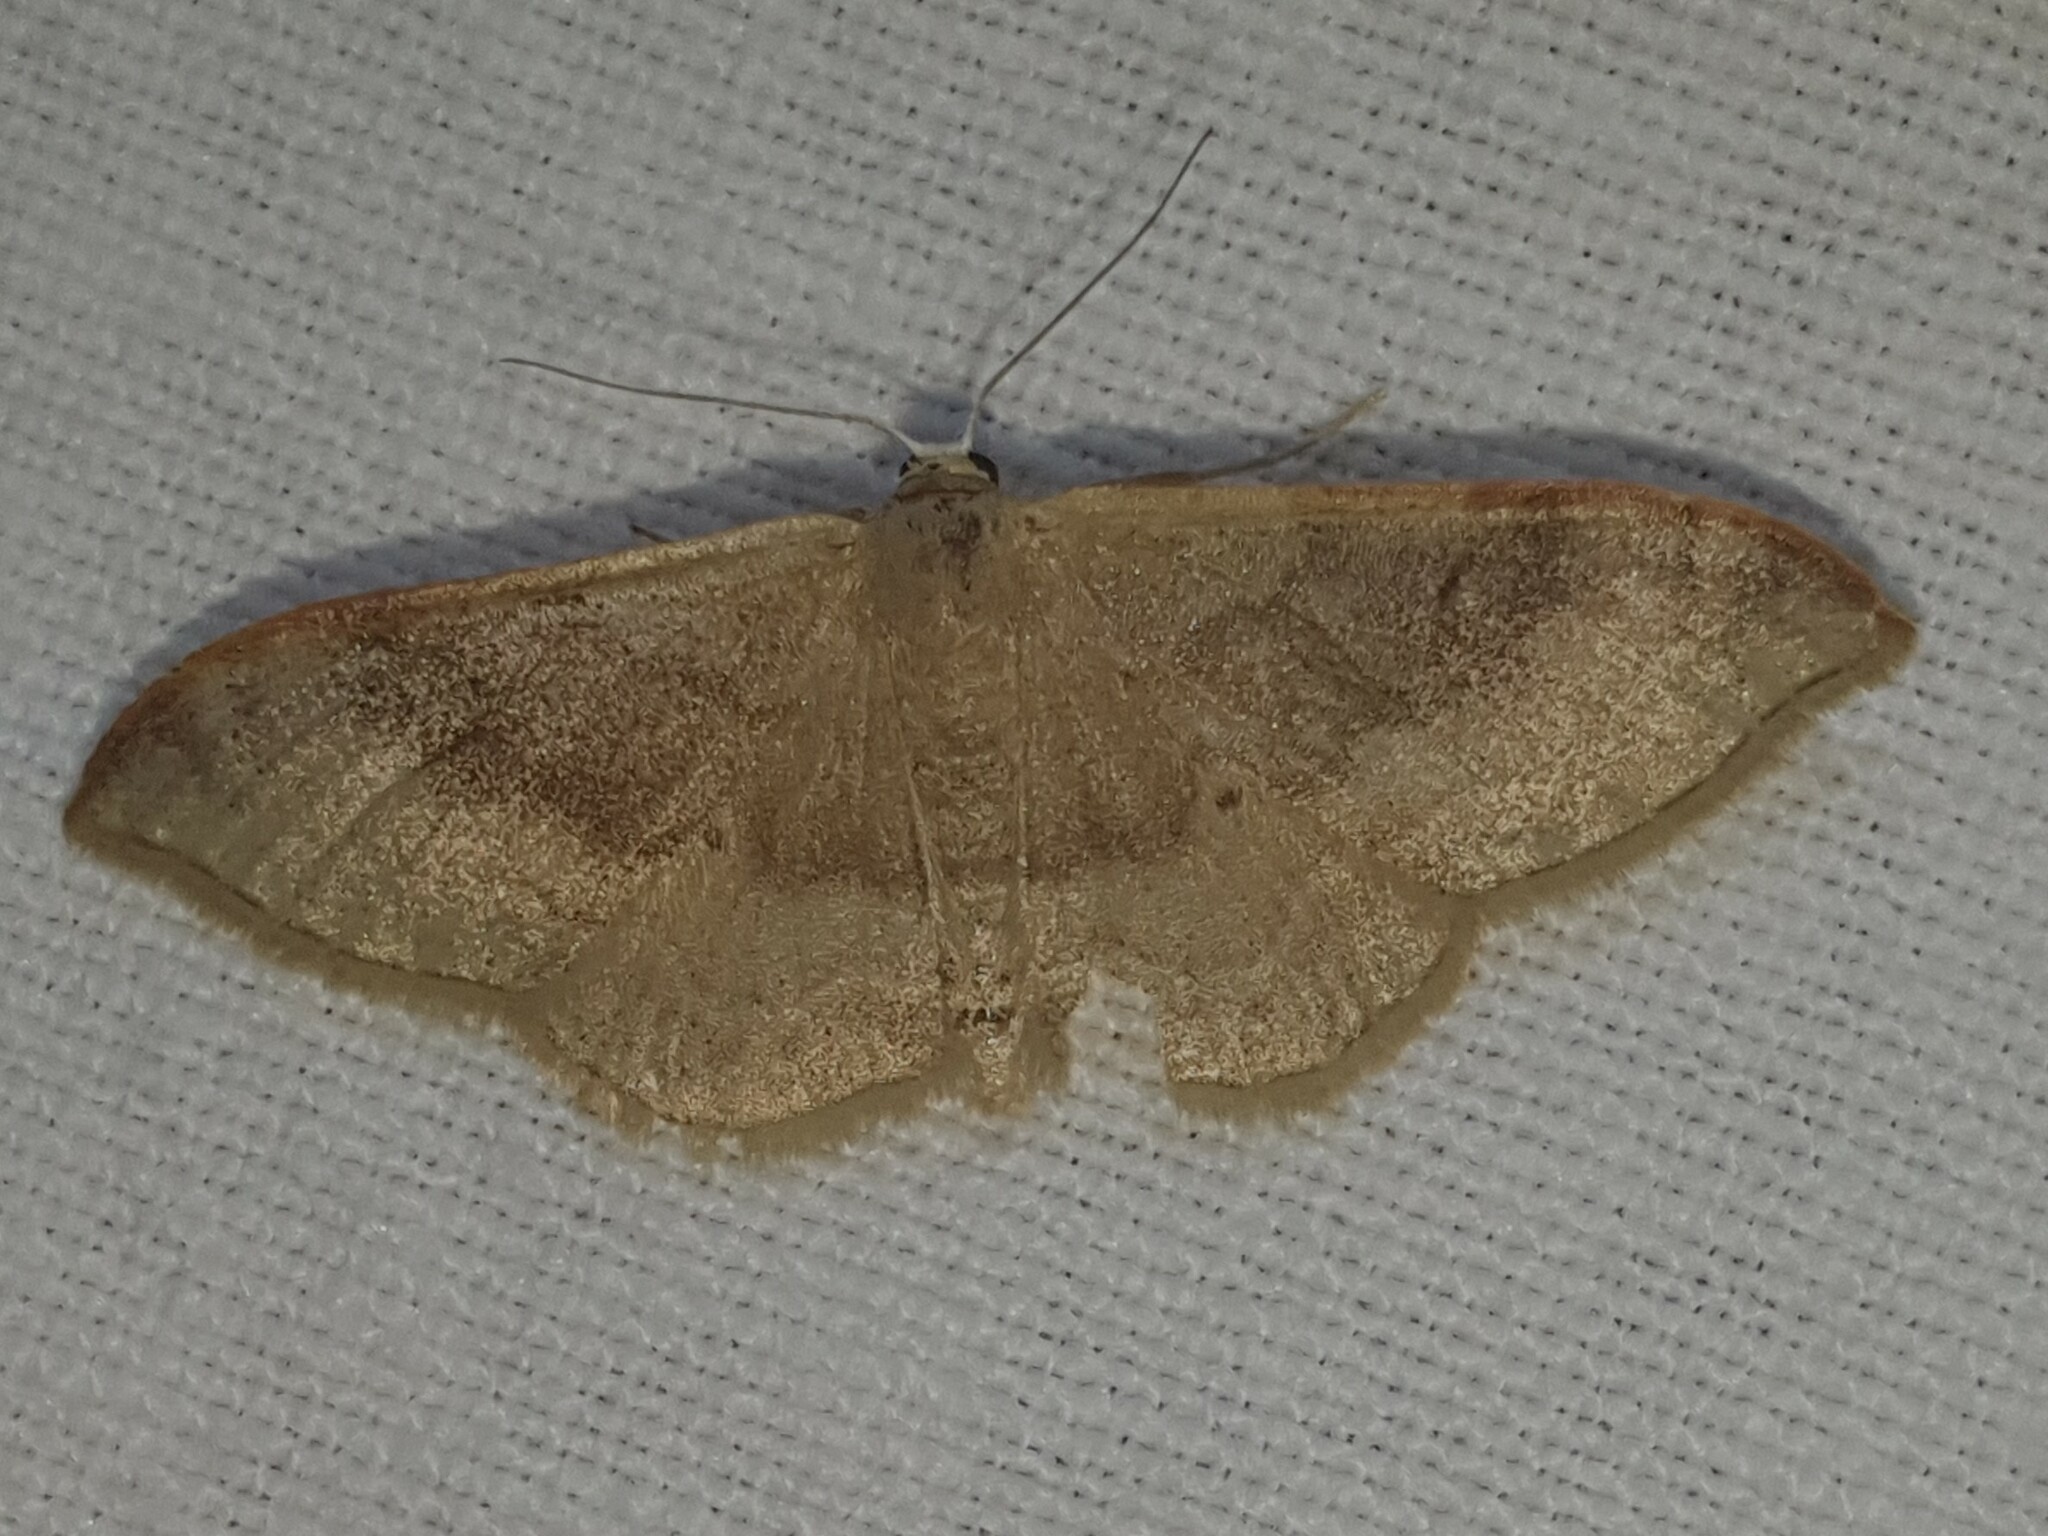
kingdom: Animalia
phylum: Arthropoda
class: Insecta
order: Lepidoptera
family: Geometridae
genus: Idaea
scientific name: Idaea degeneraria
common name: Portland ribbon wave
